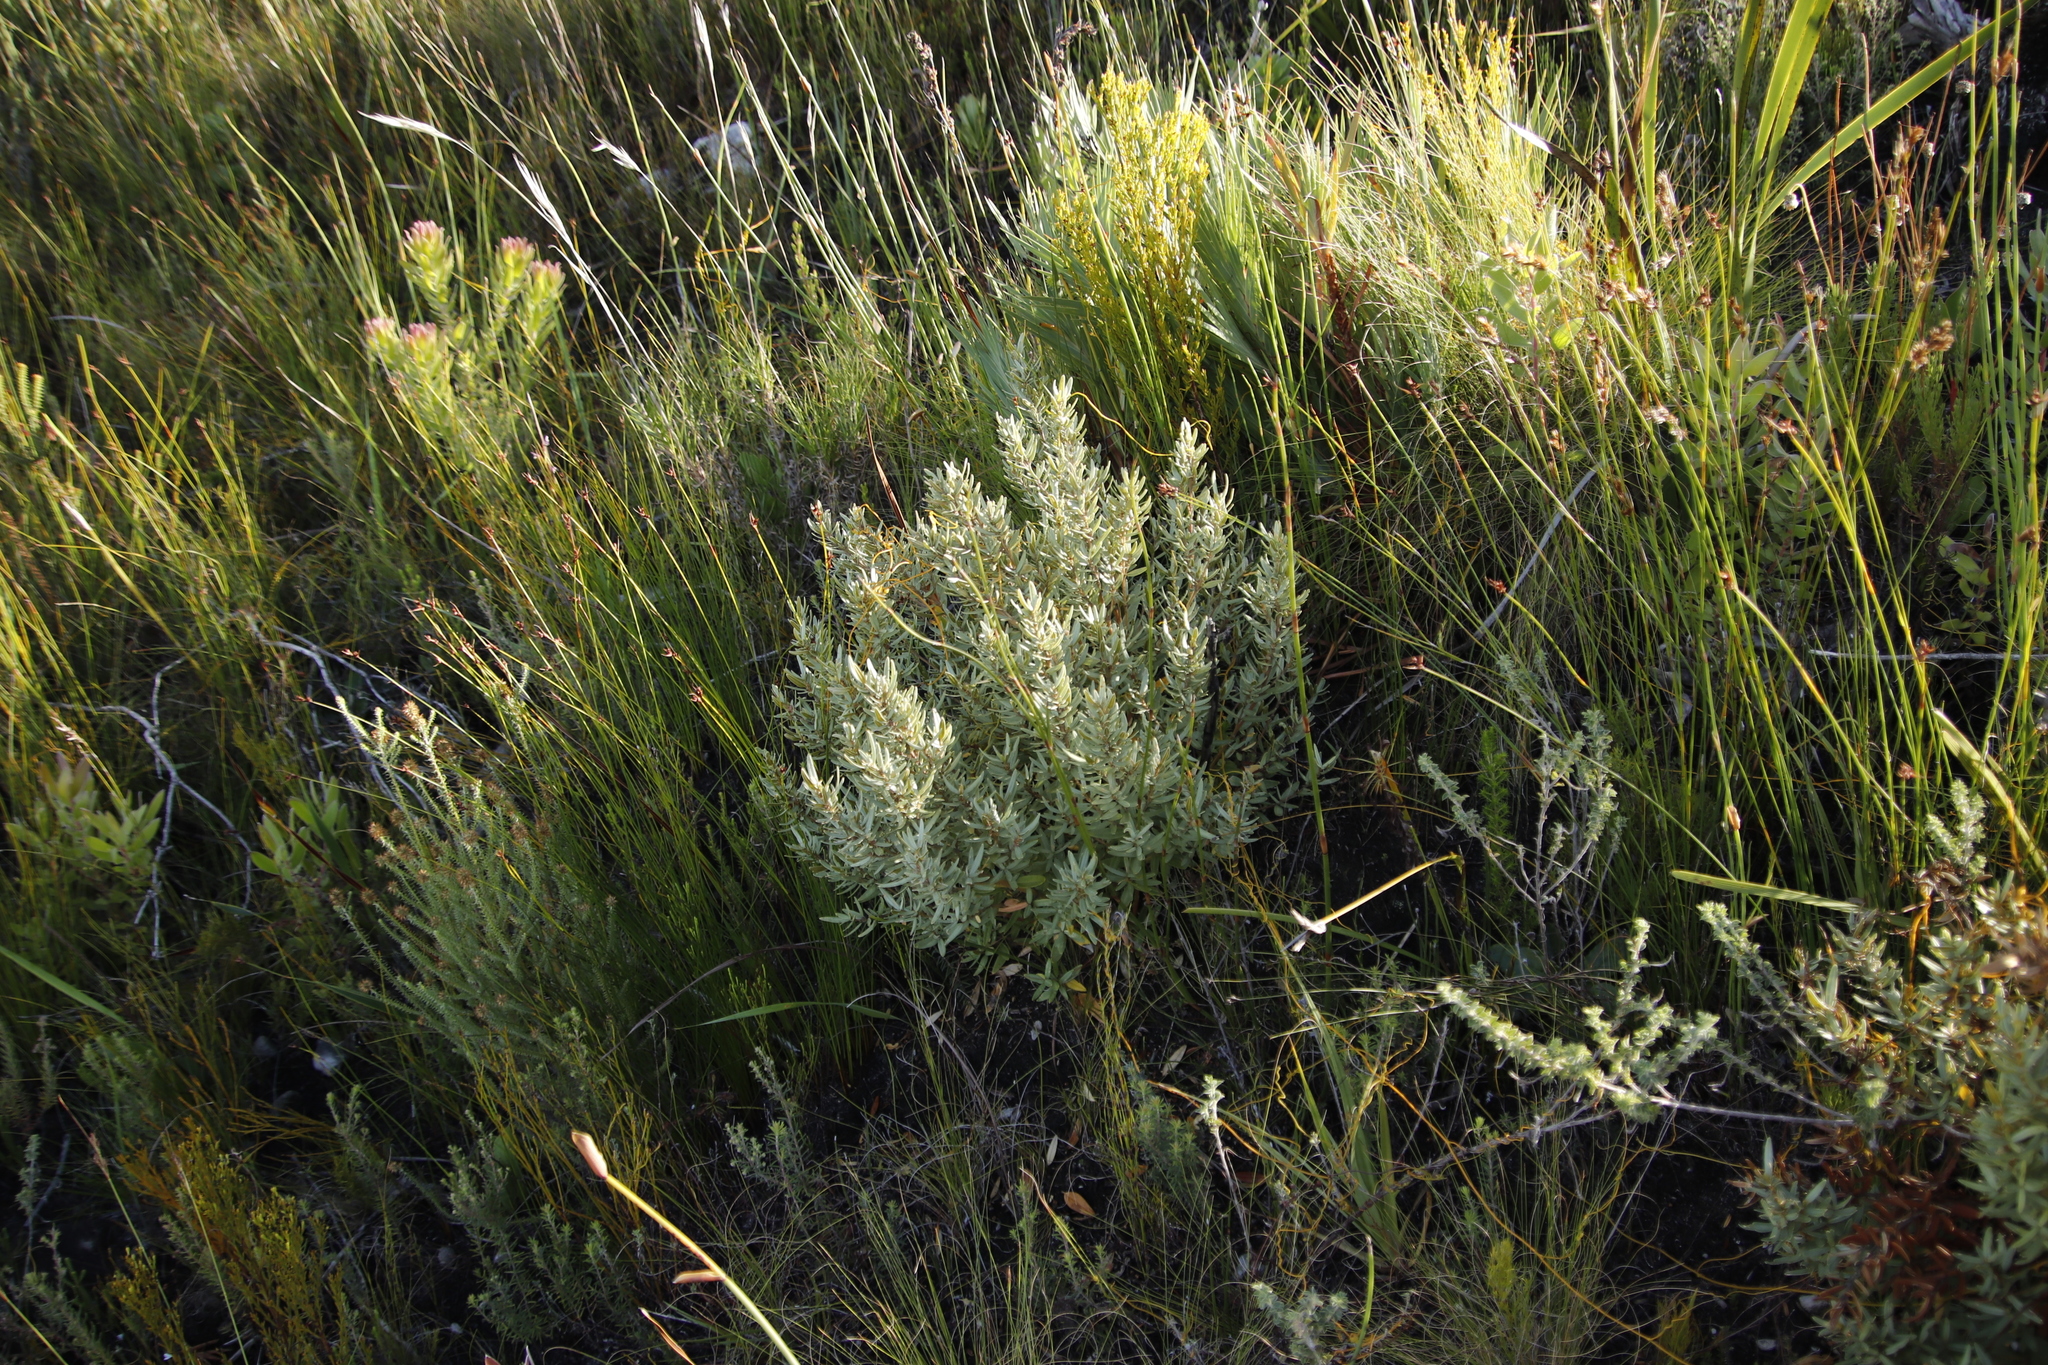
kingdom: Plantae
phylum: Tracheophyta
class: Magnoliopsida
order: Cornales
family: Grubbiaceae
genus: Grubbia
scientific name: Grubbia tomentosa
